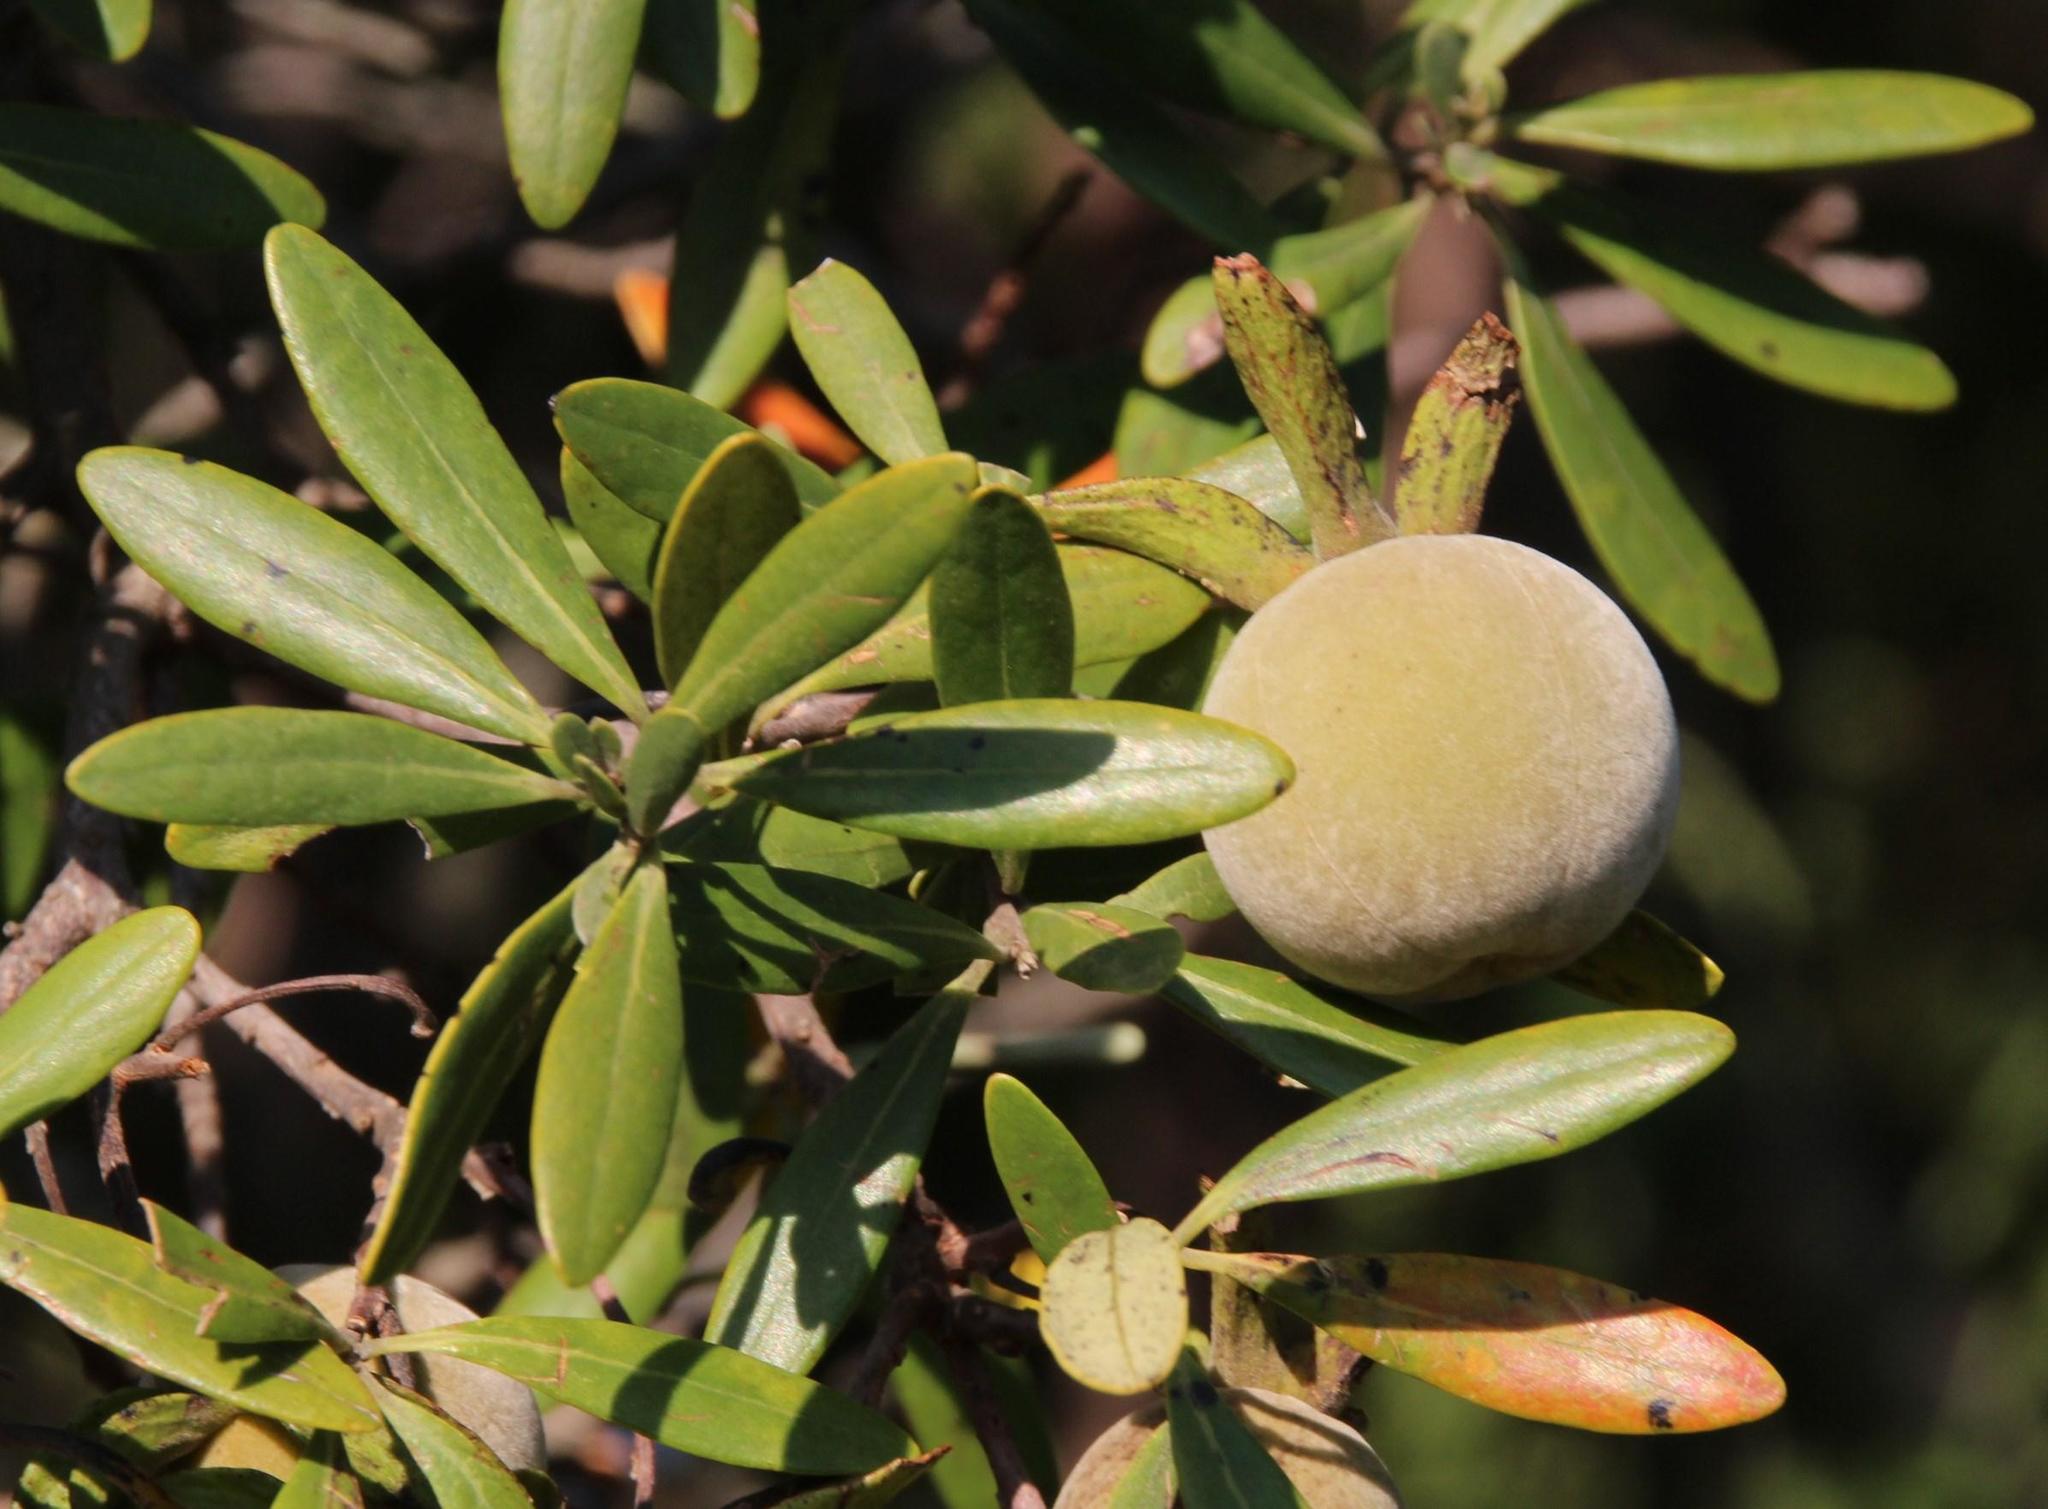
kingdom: Plantae
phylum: Tracheophyta
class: Magnoliopsida
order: Ericales
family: Ebenaceae
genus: Diospyros
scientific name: Diospyros dichrophylla
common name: Common star-apple
